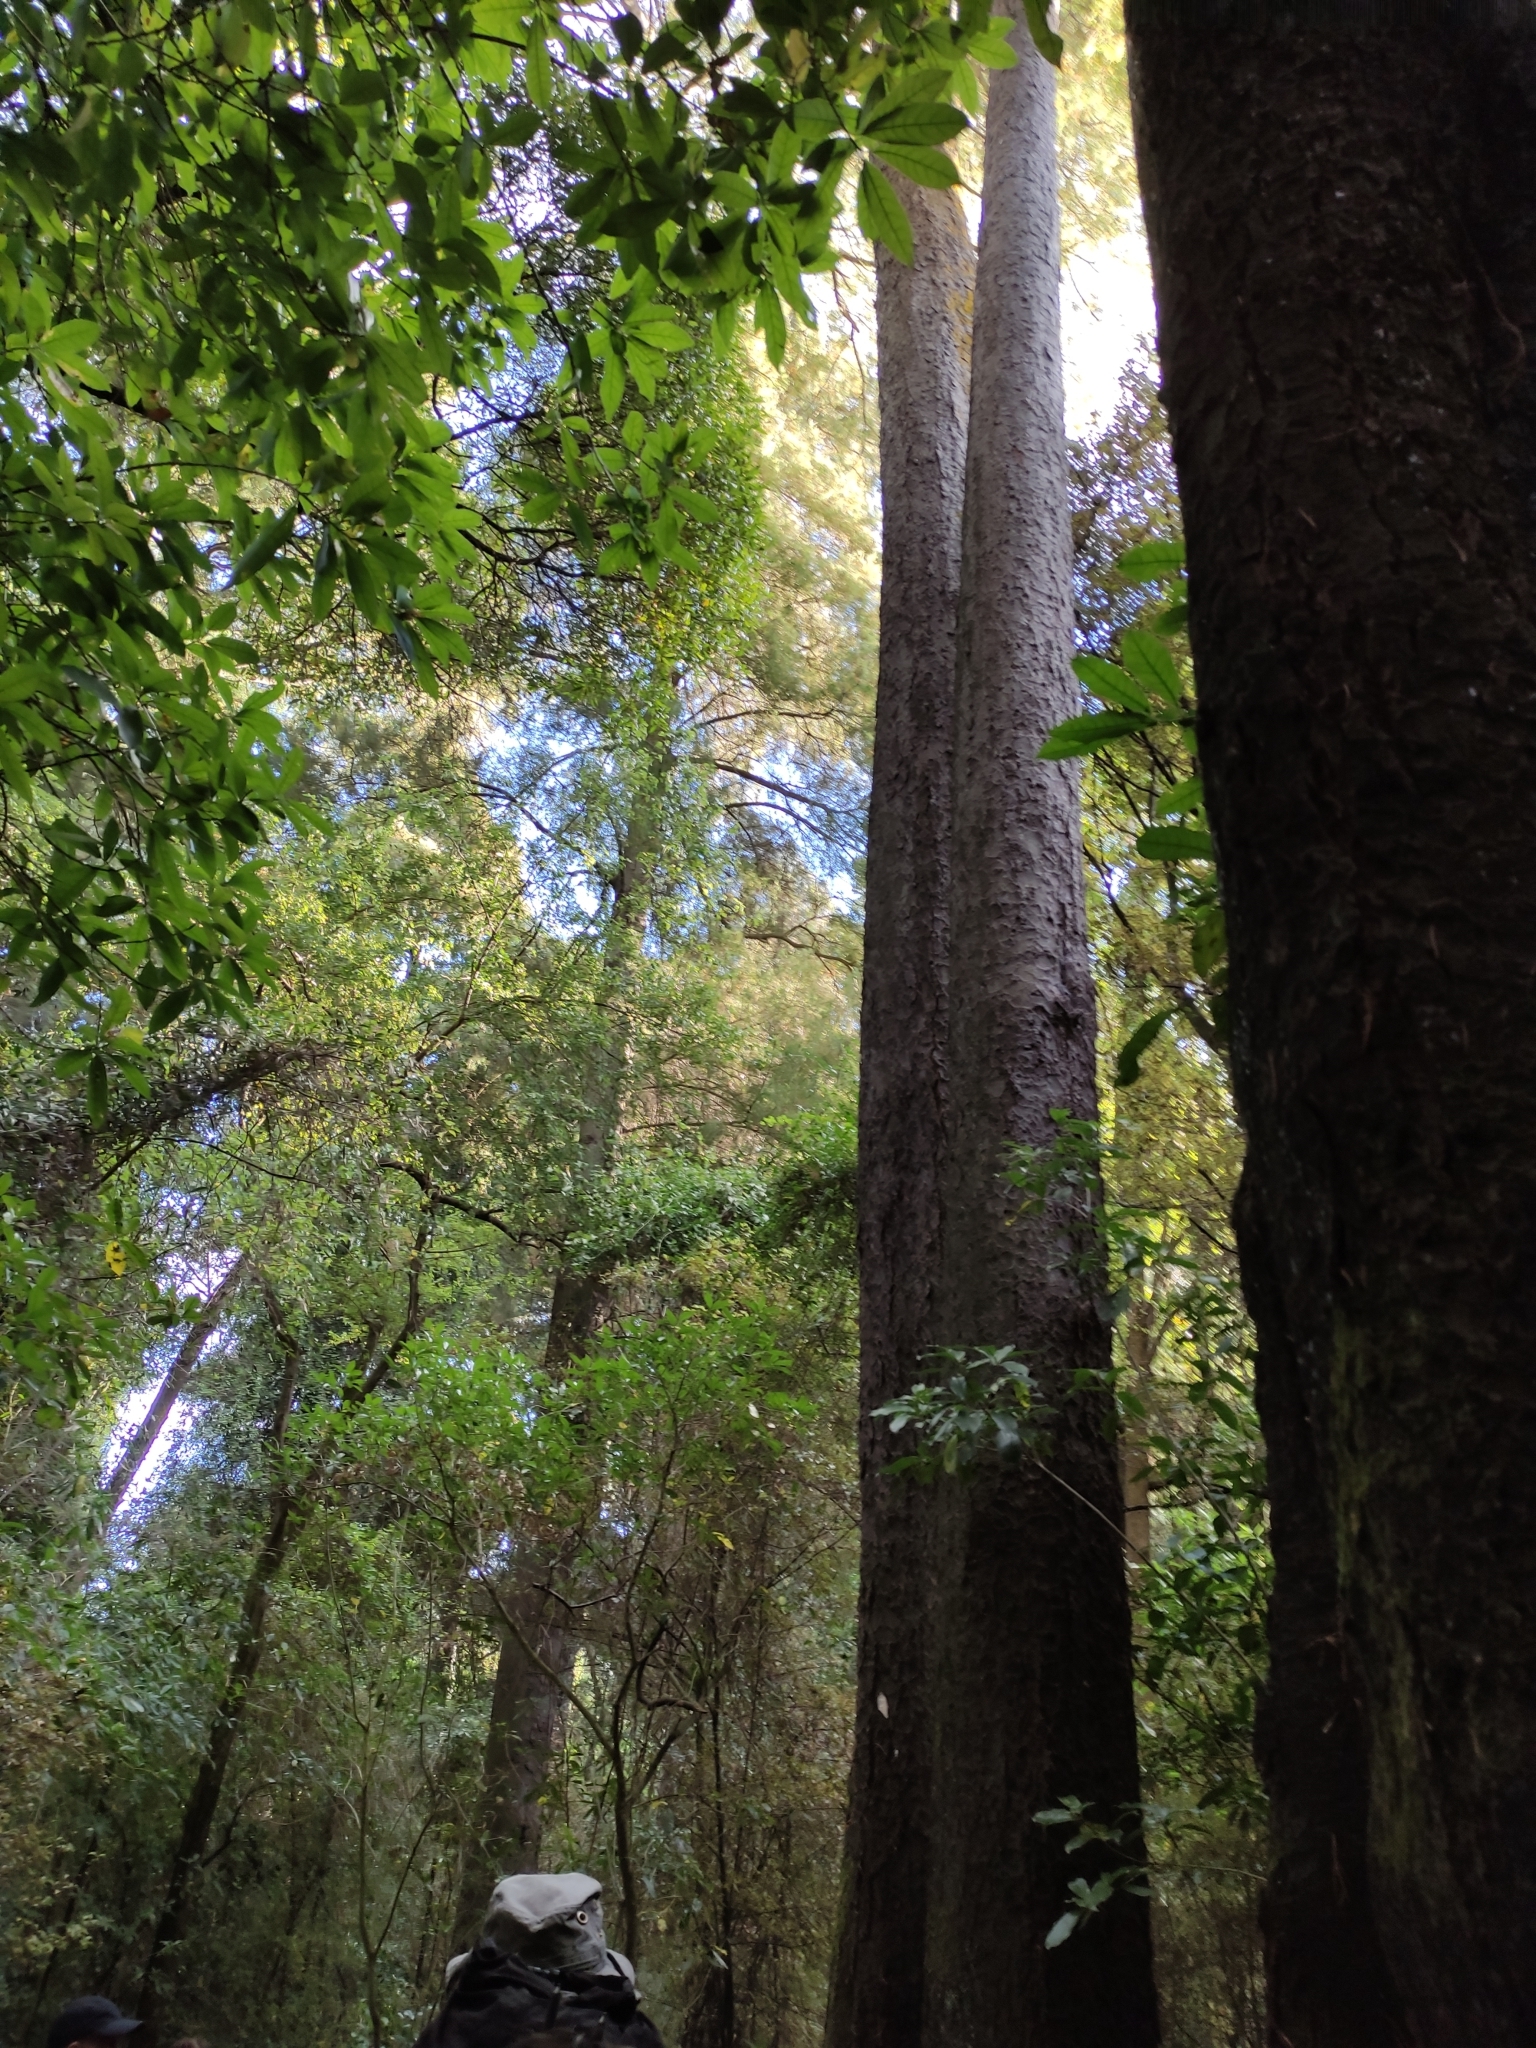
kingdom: Plantae
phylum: Tracheophyta
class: Pinopsida
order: Pinales
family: Podocarpaceae
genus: Dacrycarpus
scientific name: Dacrycarpus dacrydioides
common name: White pine
